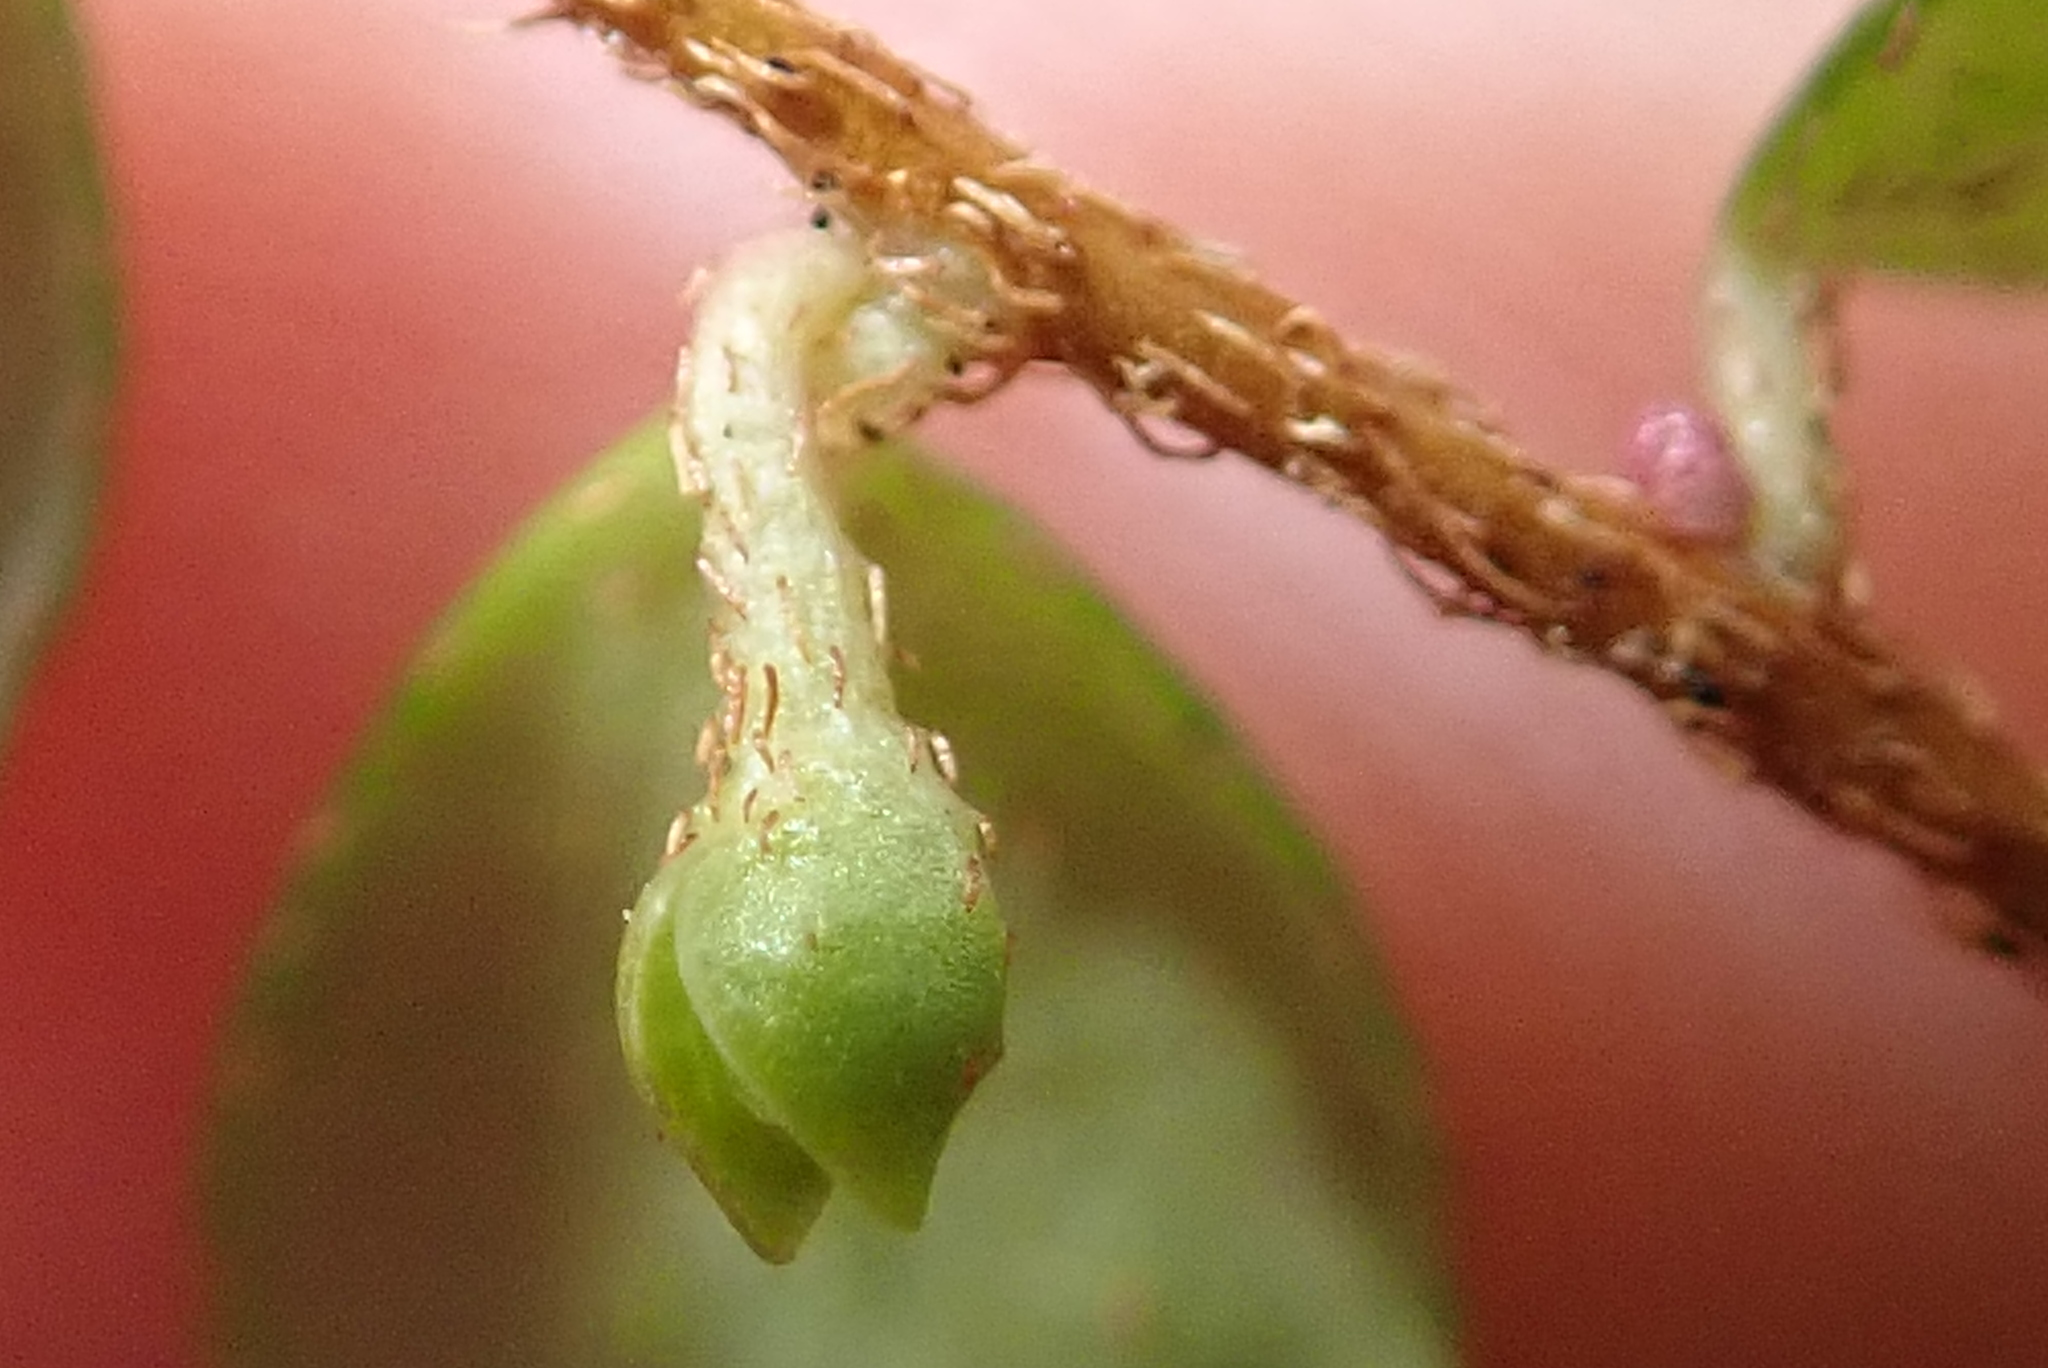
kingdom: Plantae
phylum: Tracheophyta
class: Magnoliopsida
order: Ericales
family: Ericaceae
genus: Gaultheria
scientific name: Gaultheria hispidula
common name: Cancer wintergreen
